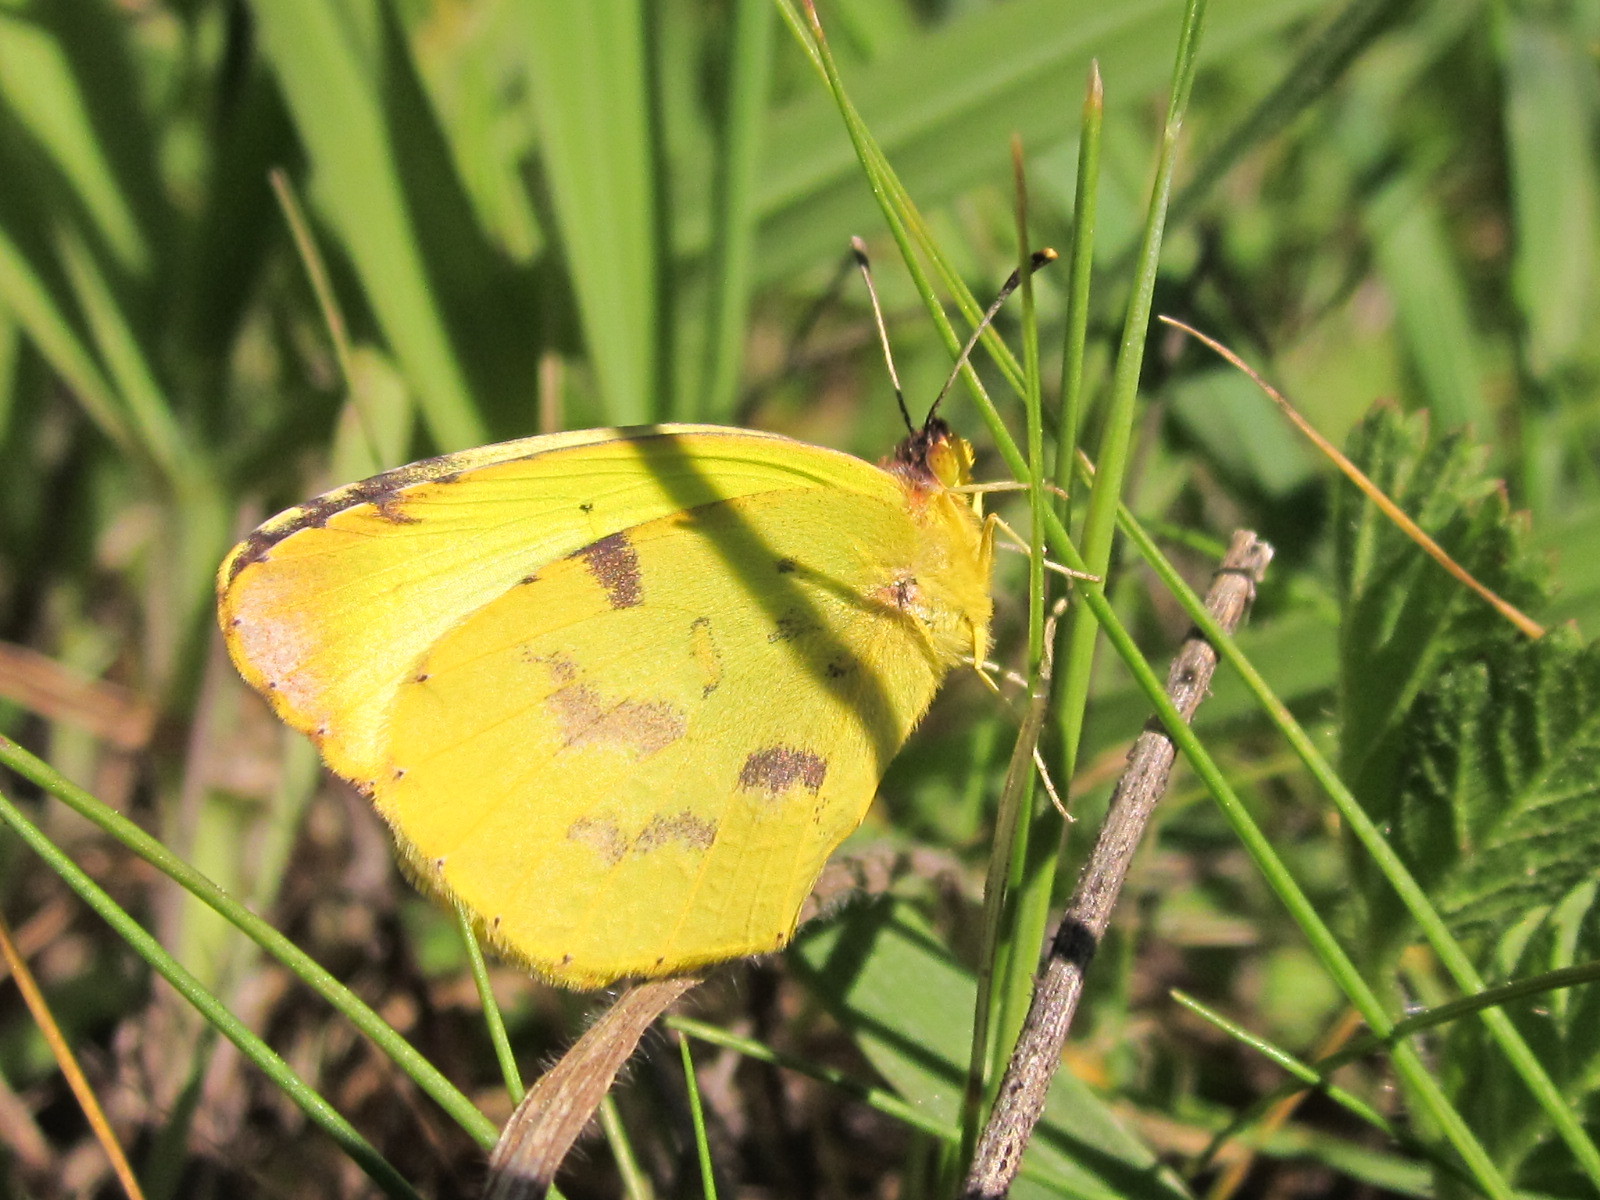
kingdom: Animalia
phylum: Arthropoda
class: Insecta
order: Lepidoptera
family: Pieridae
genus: Teriocolias
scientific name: Teriocolias
